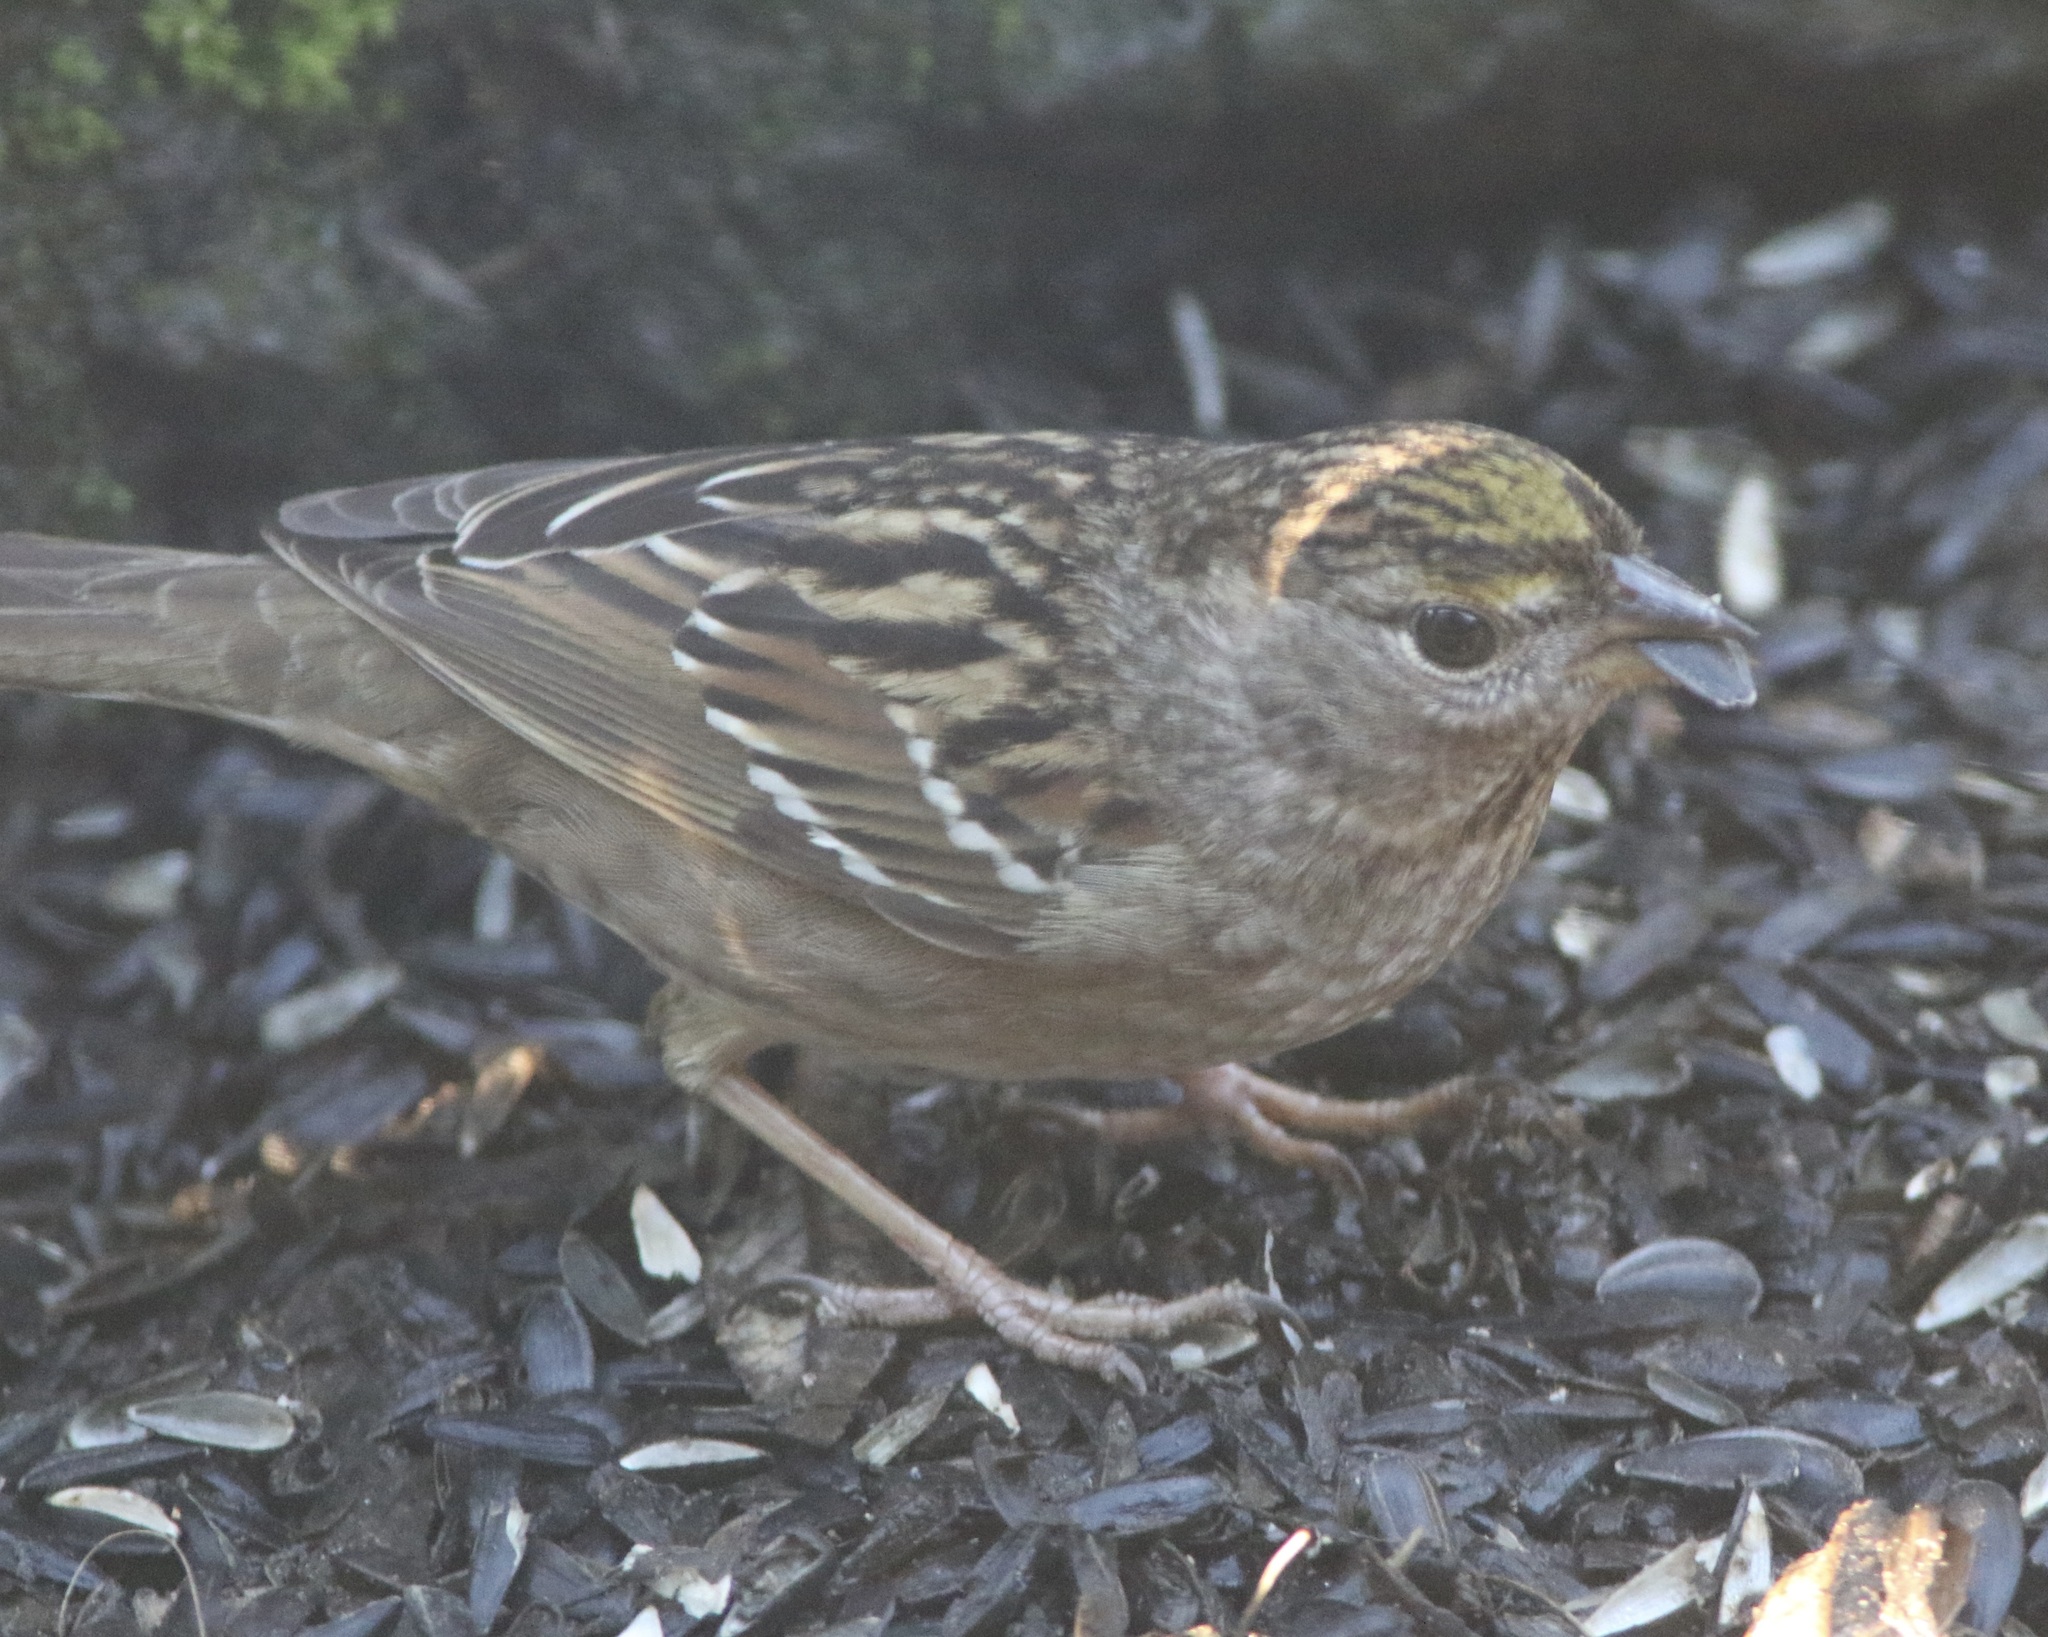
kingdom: Animalia
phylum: Chordata
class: Aves
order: Passeriformes
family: Passerellidae
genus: Zonotrichia
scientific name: Zonotrichia atricapilla
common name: Golden-crowned sparrow
